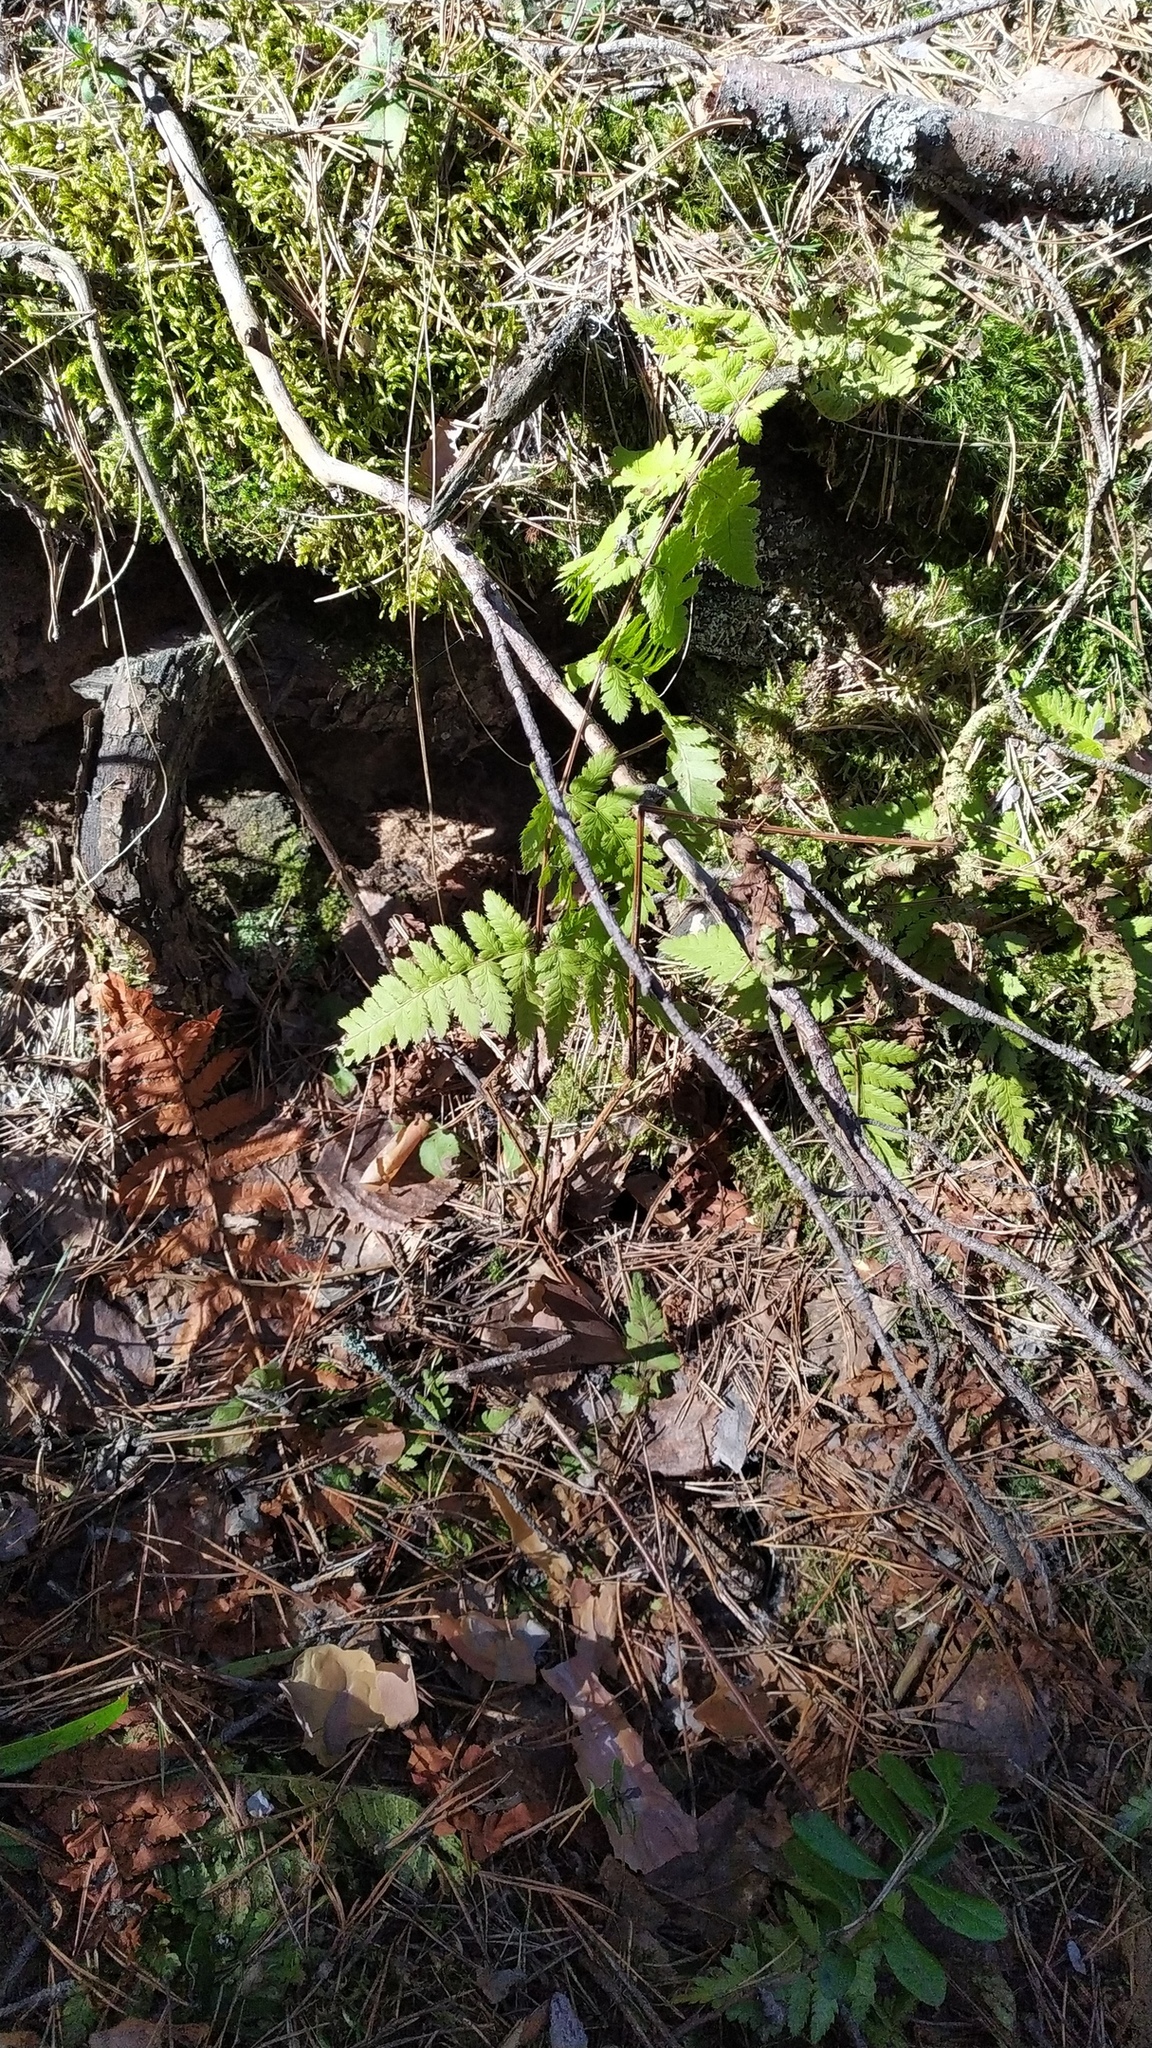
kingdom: Plantae
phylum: Tracheophyta
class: Polypodiopsida
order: Polypodiales
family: Dryopteridaceae
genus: Dryopteris
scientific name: Dryopteris carthusiana
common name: Narrow buckler-fern
